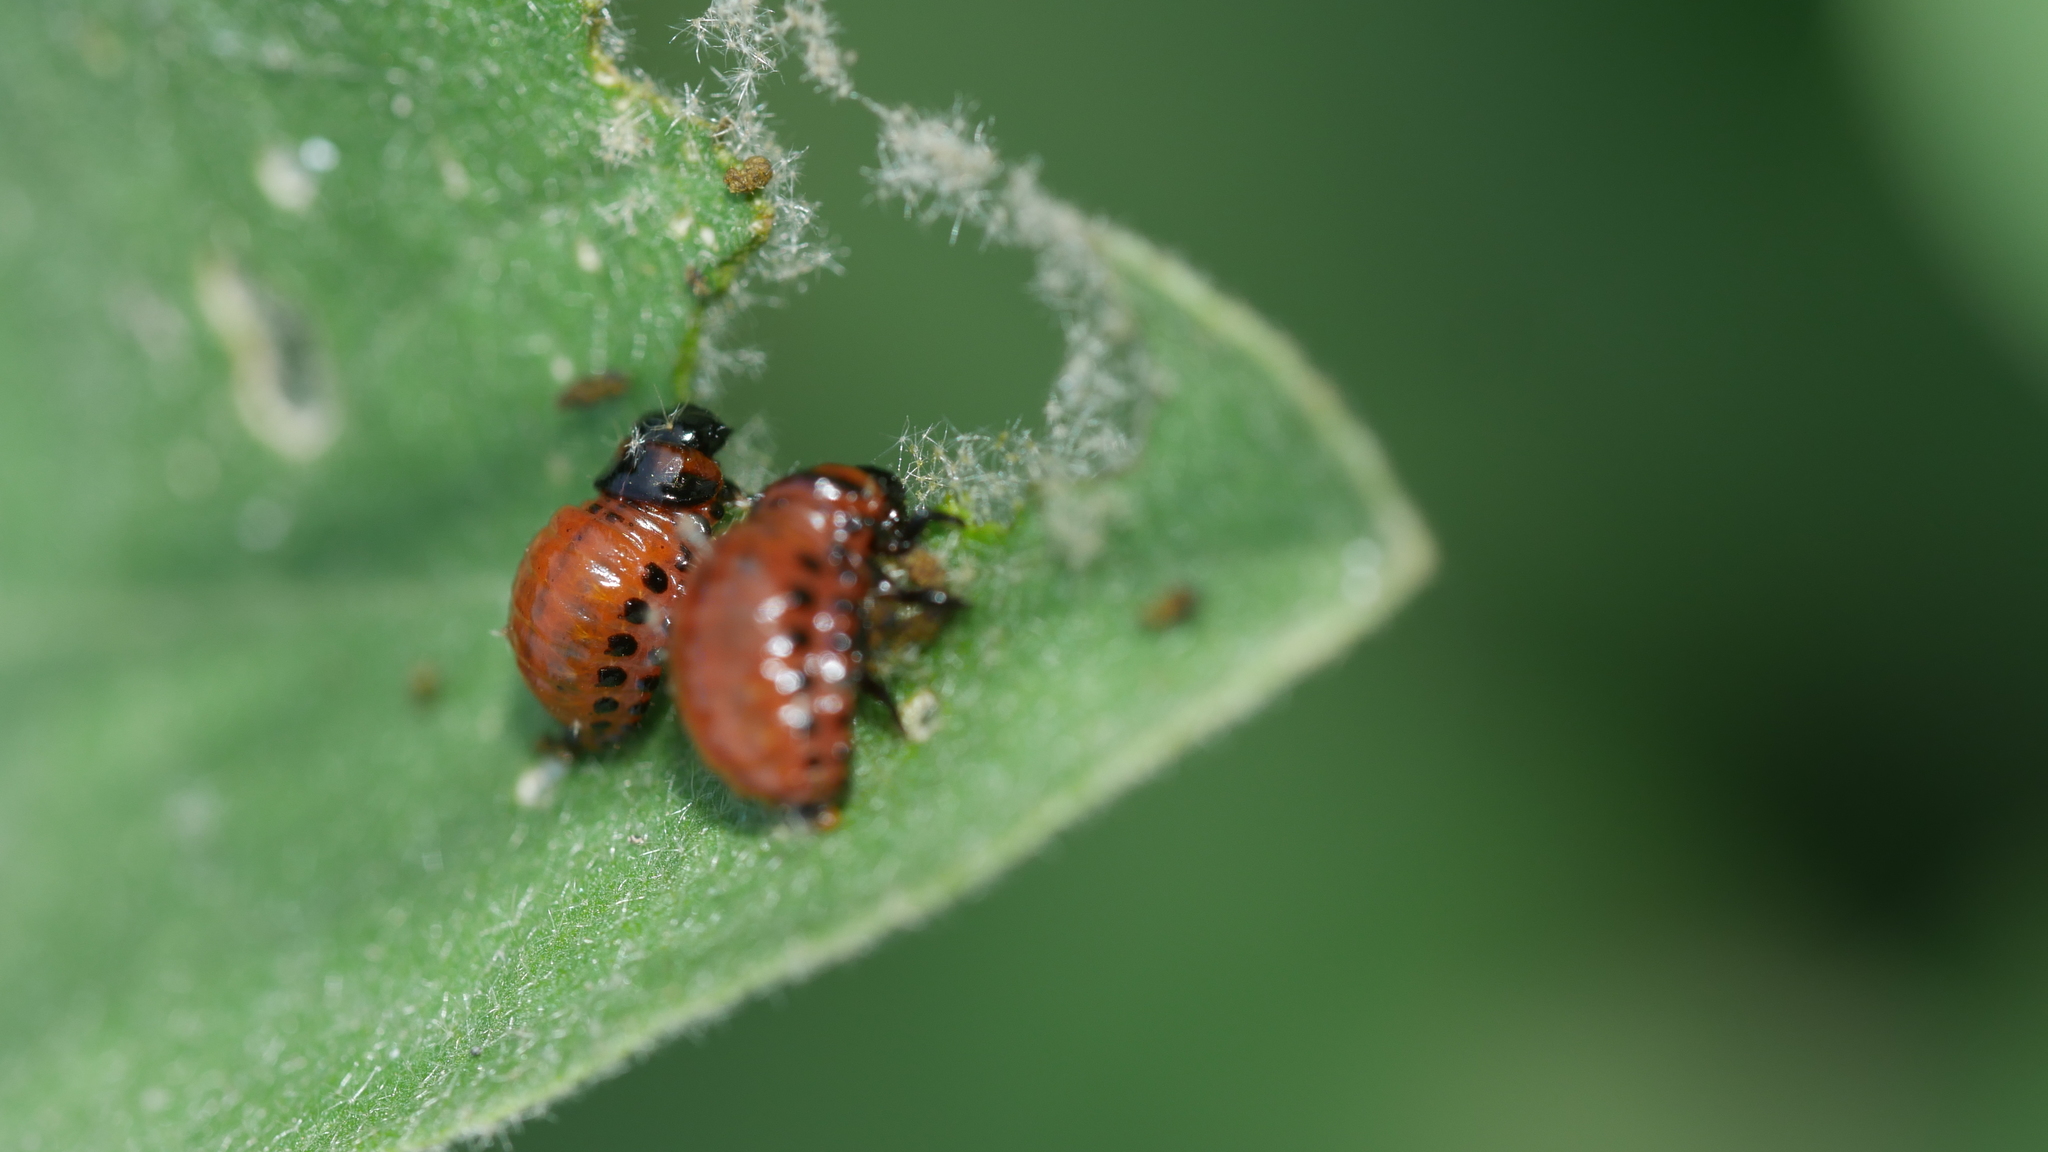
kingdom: Animalia
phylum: Arthropoda
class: Insecta
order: Coleoptera
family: Chrysomelidae
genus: Leptinotarsa
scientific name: Leptinotarsa decemlineata
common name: Colorado potato beetle
